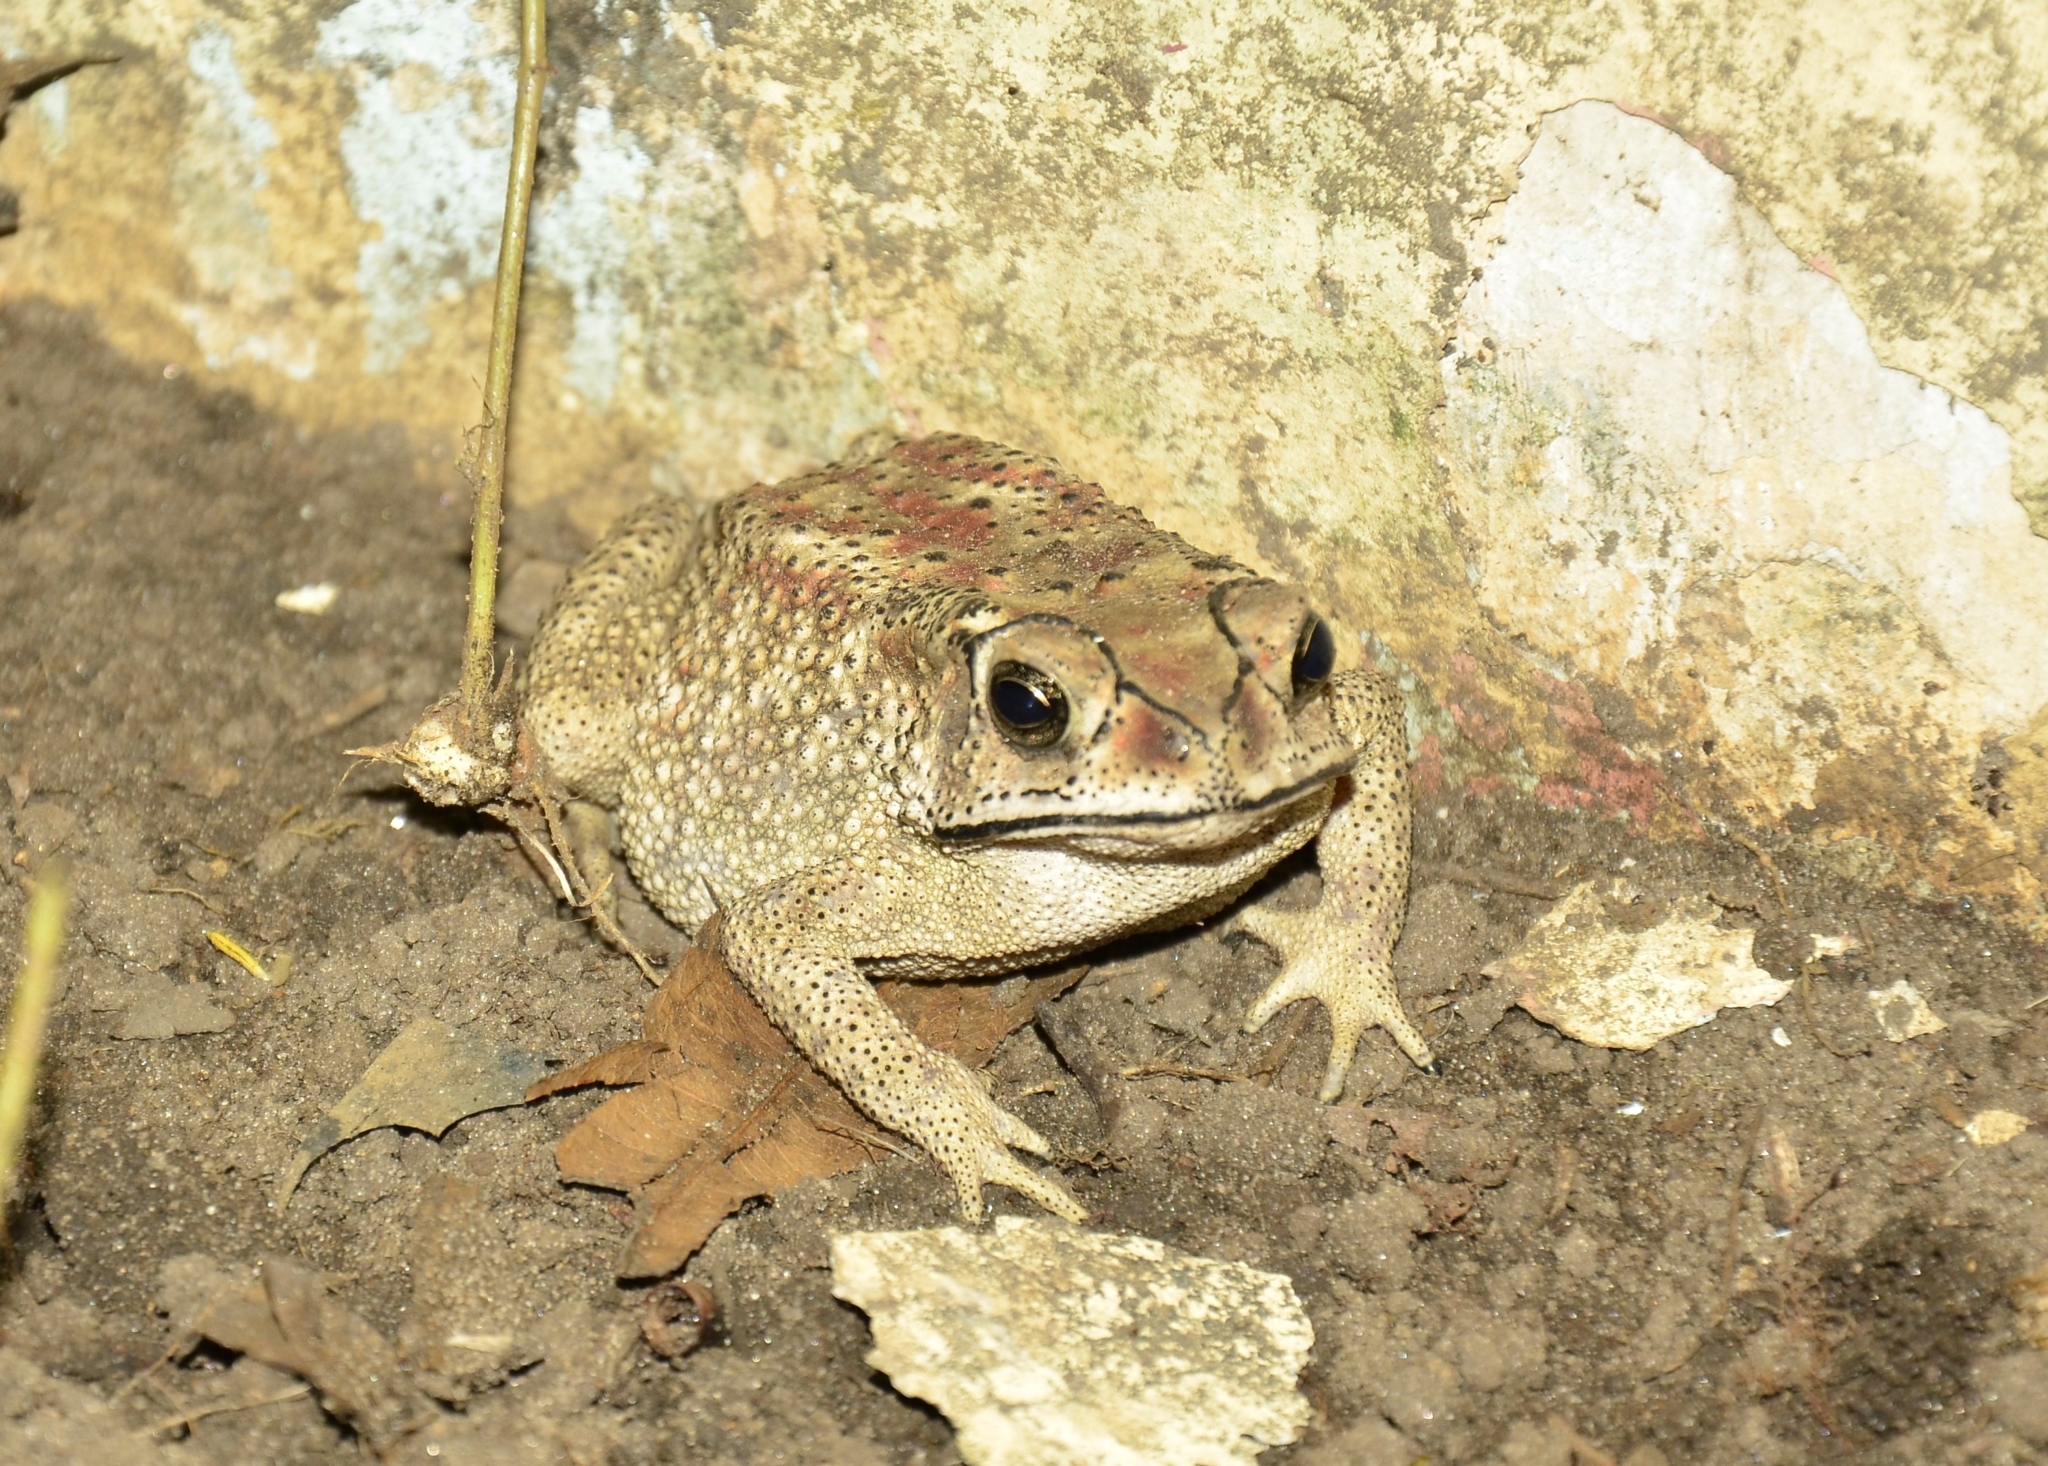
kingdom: Animalia
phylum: Chordata
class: Amphibia
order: Anura
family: Bufonidae
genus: Duttaphrynus
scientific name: Duttaphrynus melanostictus
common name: Common sunda toad
